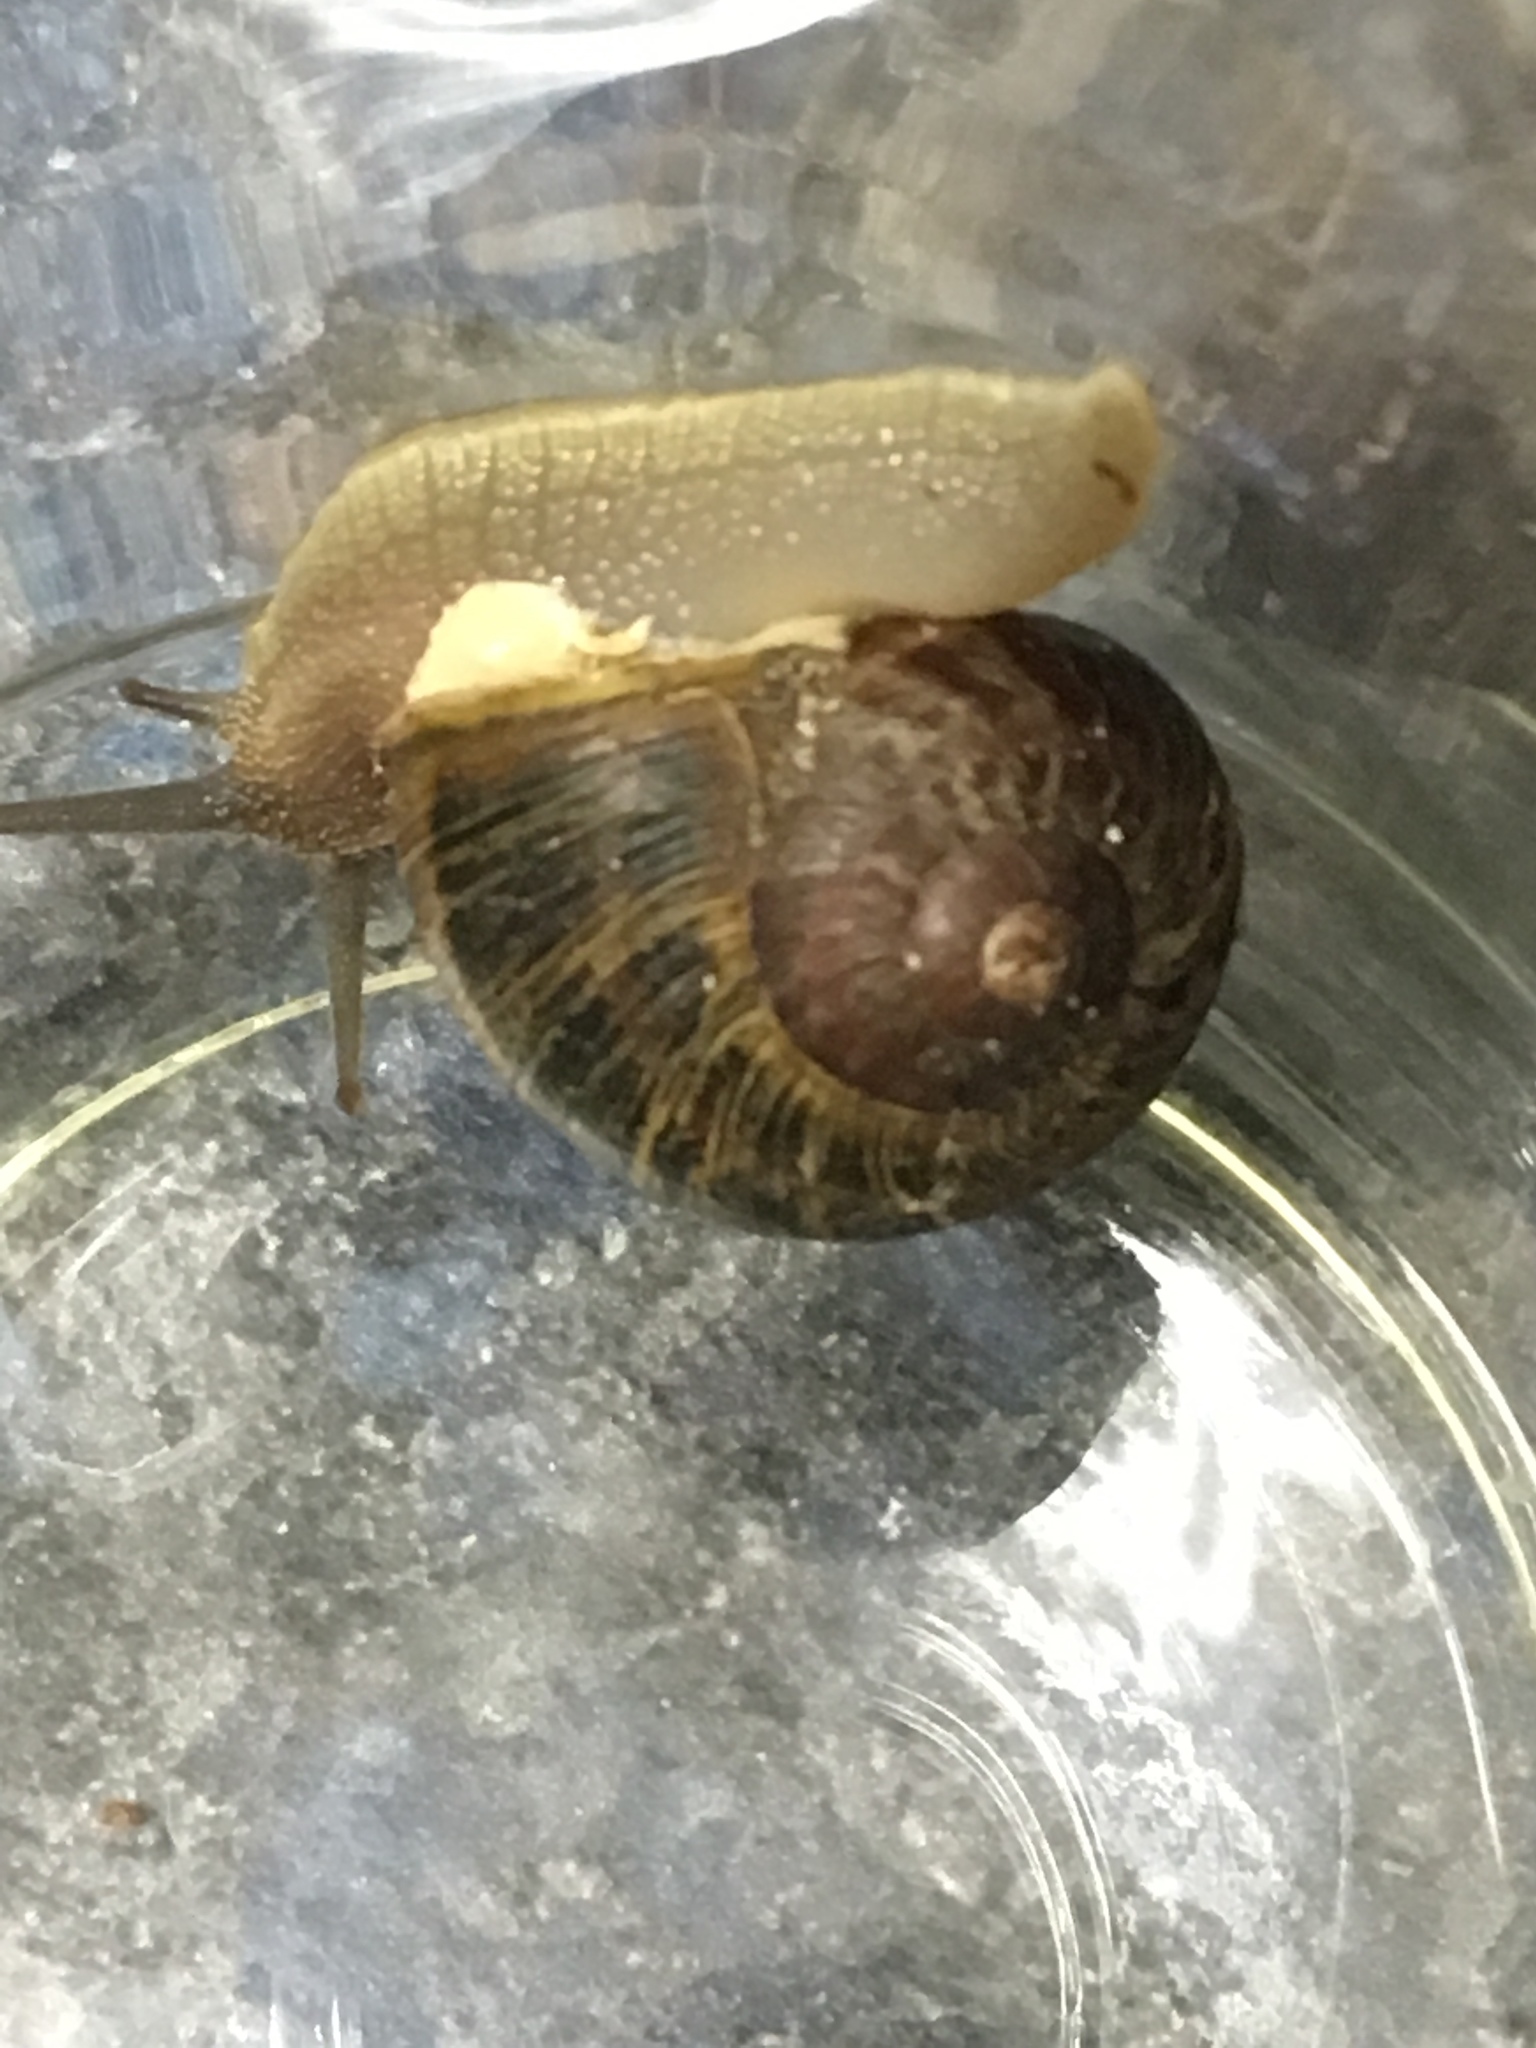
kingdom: Animalia
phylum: Mollusca
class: Gastropoda
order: Stylommatophora
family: Helicidae
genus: Cornu
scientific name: Cornu aspersum
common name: Brown garden snail
